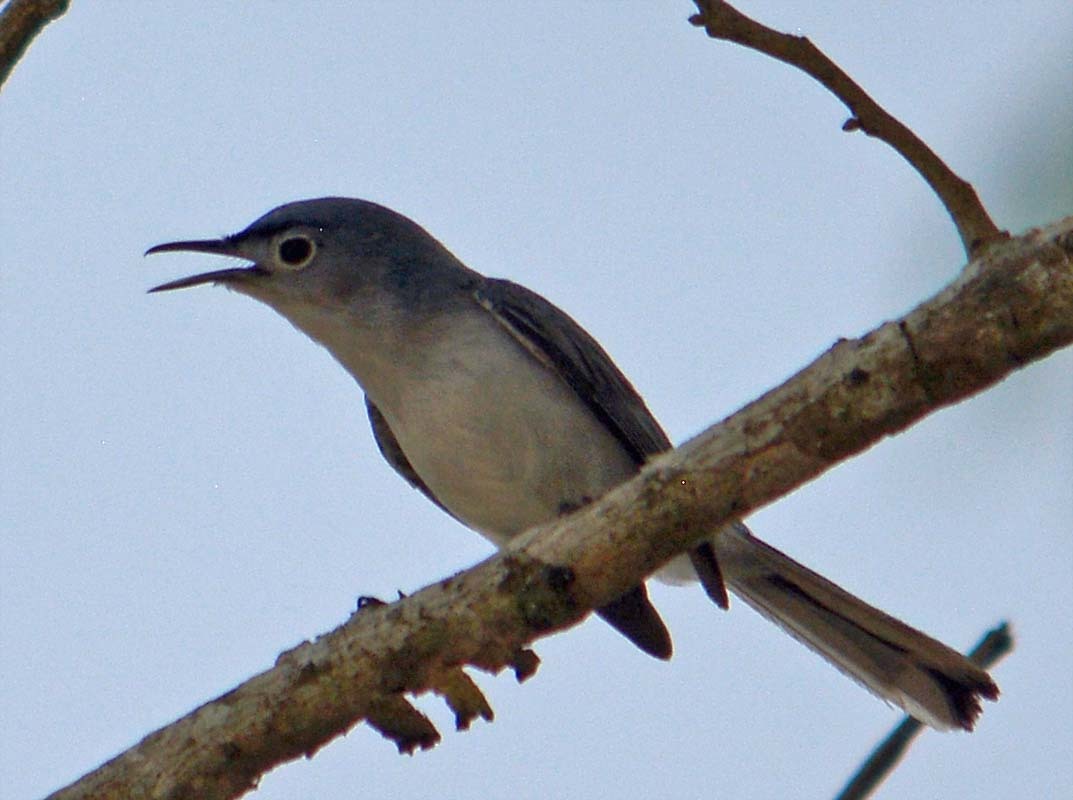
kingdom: Animalia
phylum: Chordata
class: Aves
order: Passeriformes
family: Polioptilidae
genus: Polioptila
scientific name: Polioptila caerulea
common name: Blue-gray gnatcatcher
